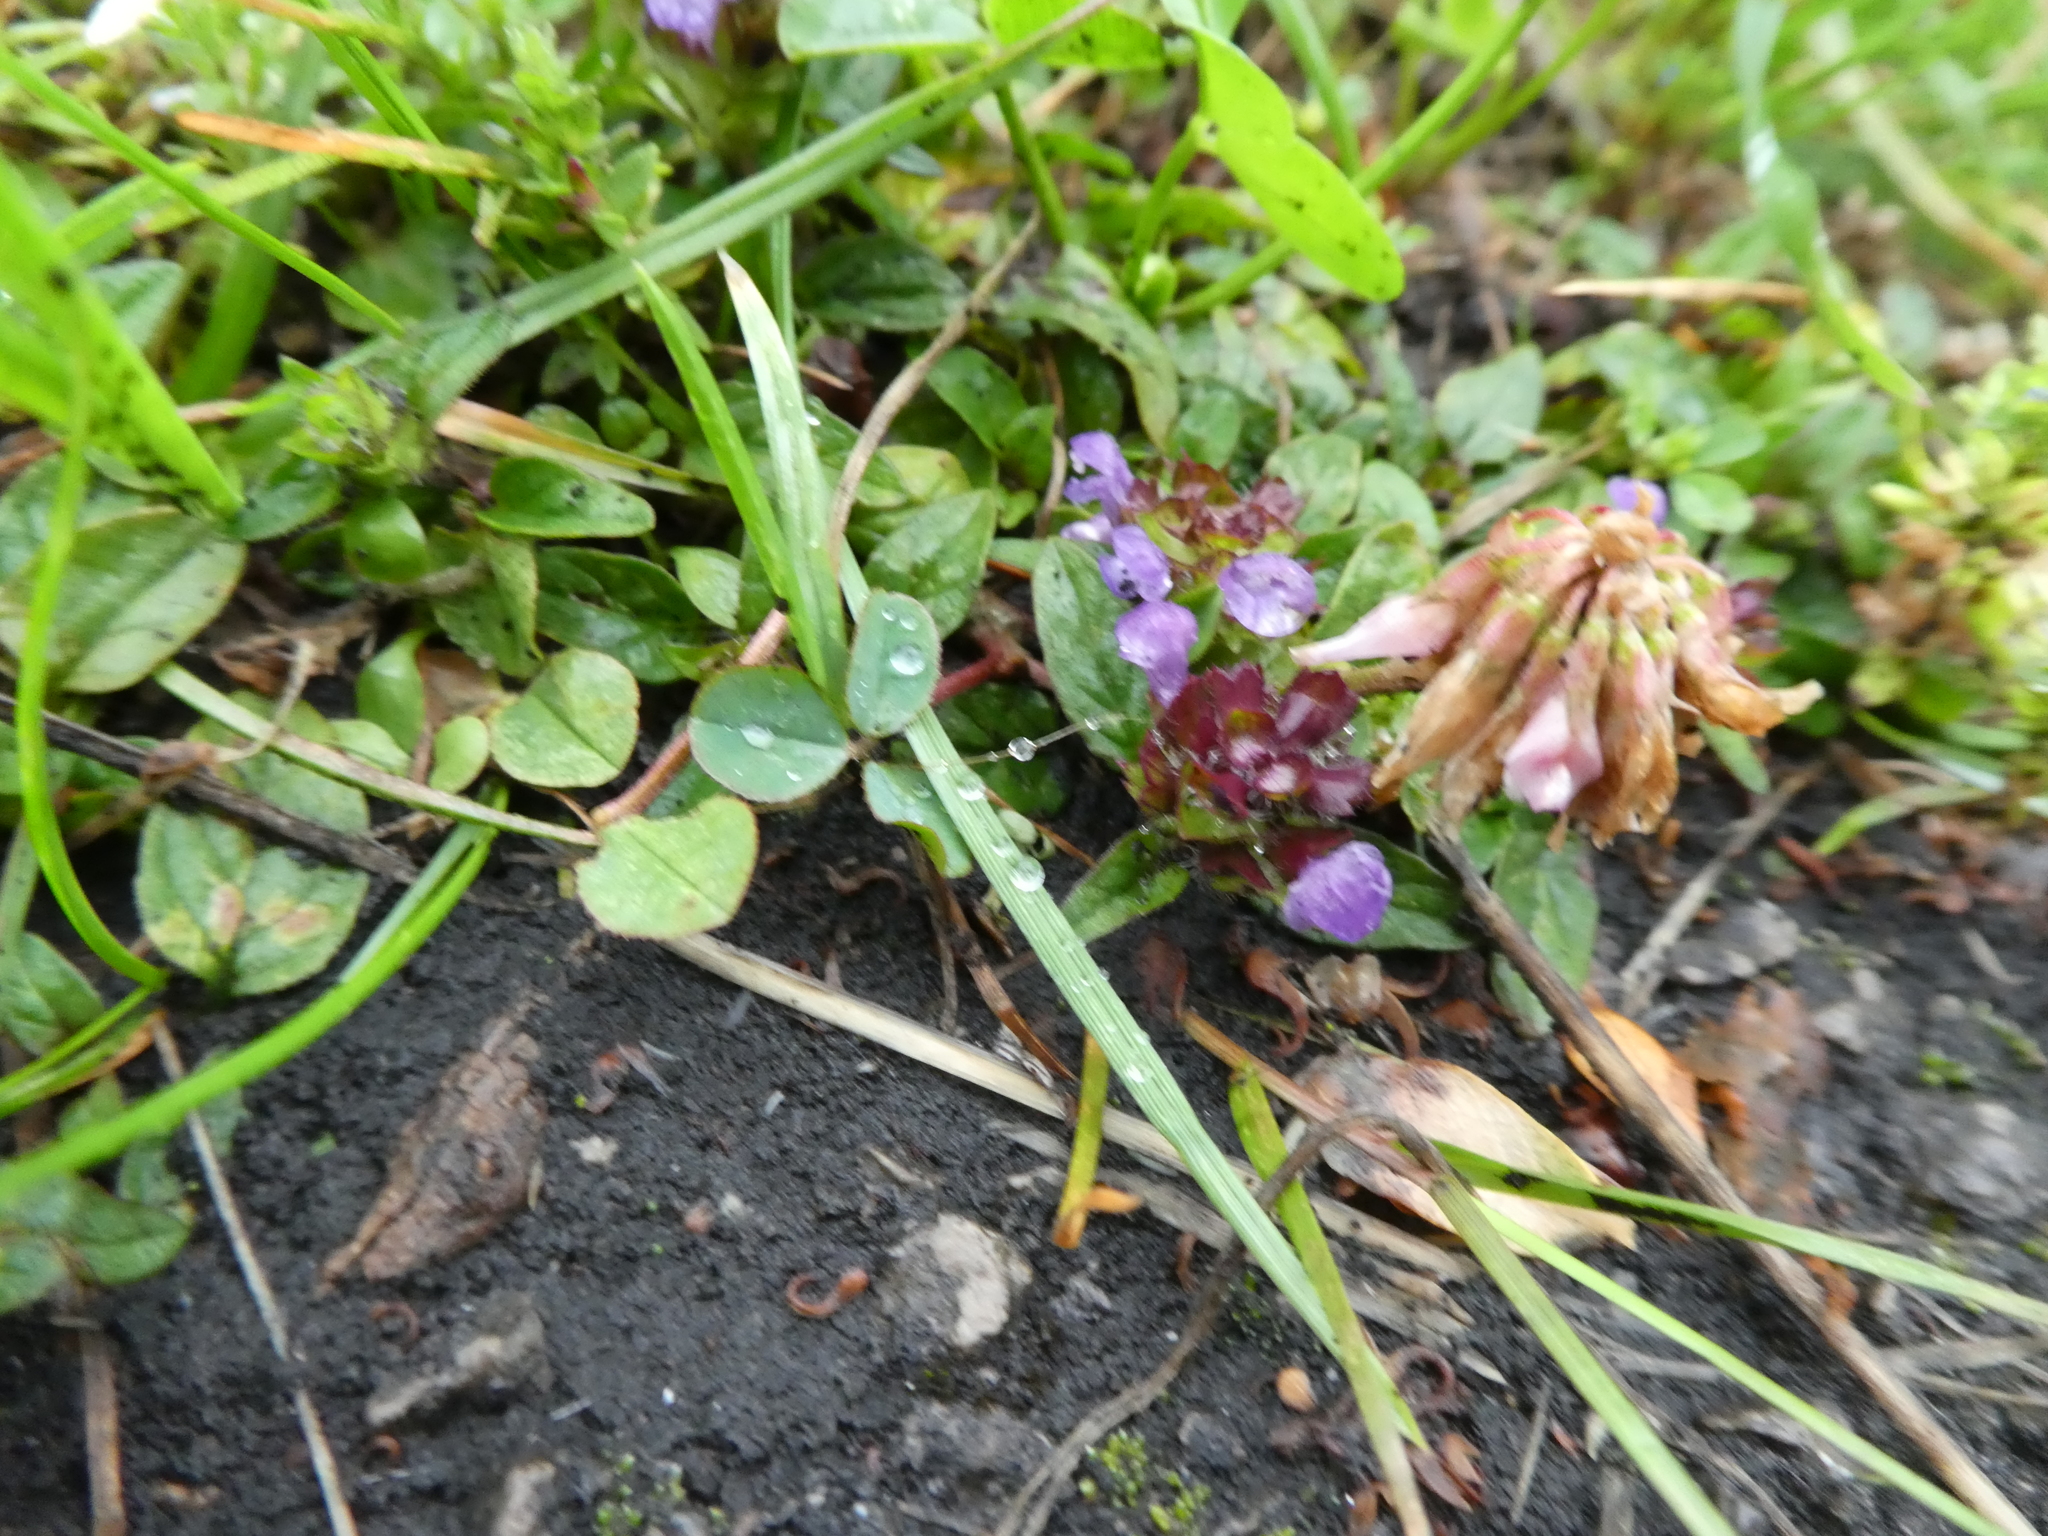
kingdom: Plantae
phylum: Tracheophyta
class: Magnoliopsida
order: Lamiales
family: Lamiaceae
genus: Prunella
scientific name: Prunella vulgaris
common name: Heal-all
